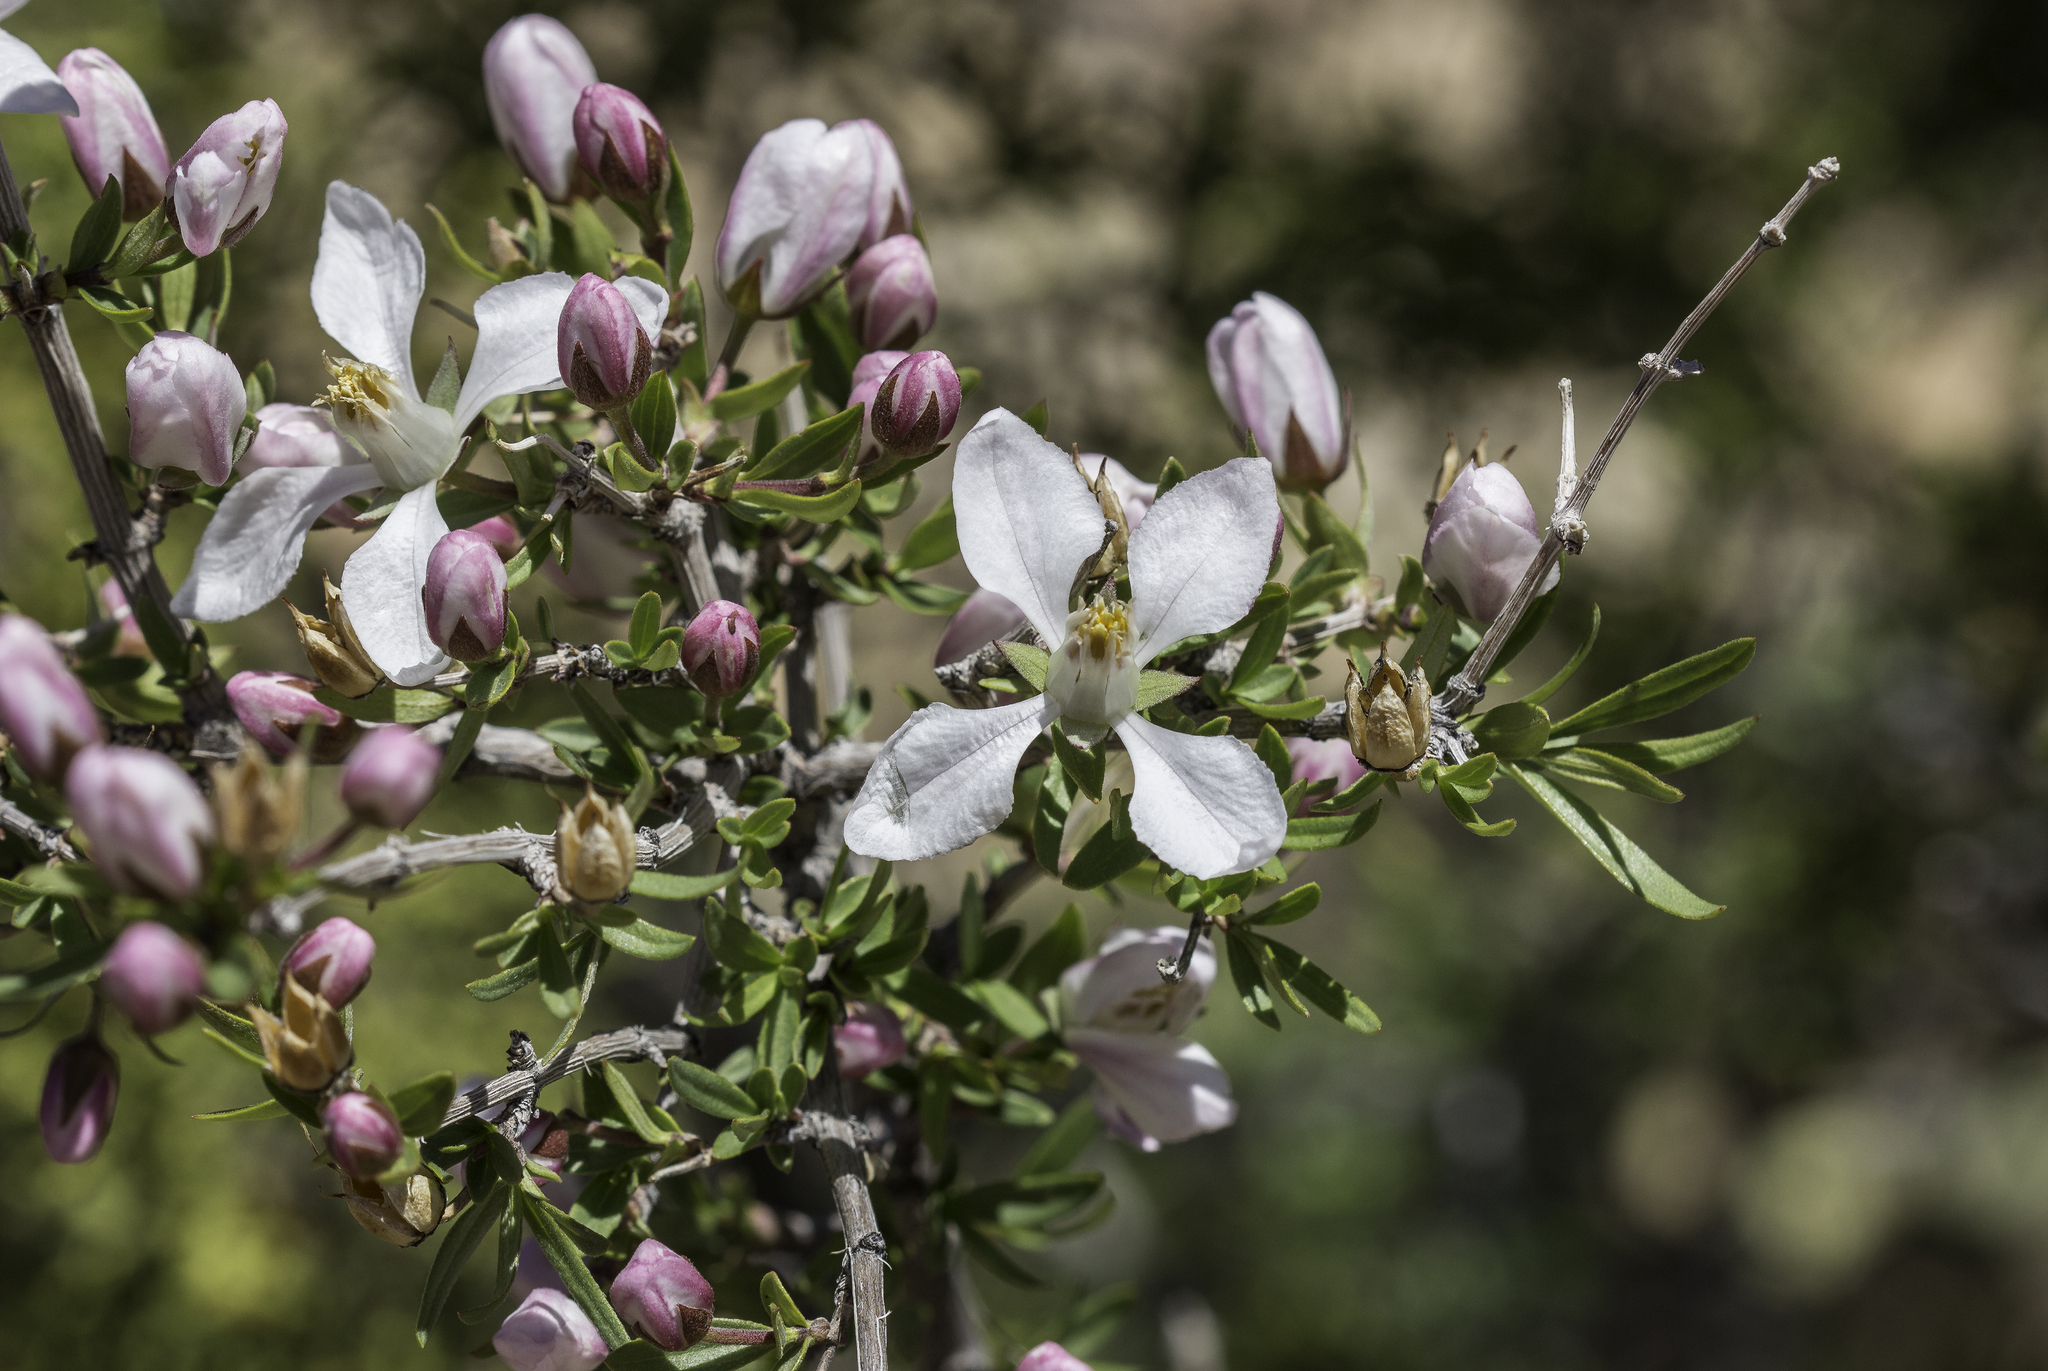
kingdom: Plantae
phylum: Tracheophyta
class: Magnoliopsida
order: Cornales
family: Hydrangeaceae
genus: Fendlera
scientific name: Fendlera rupicola
